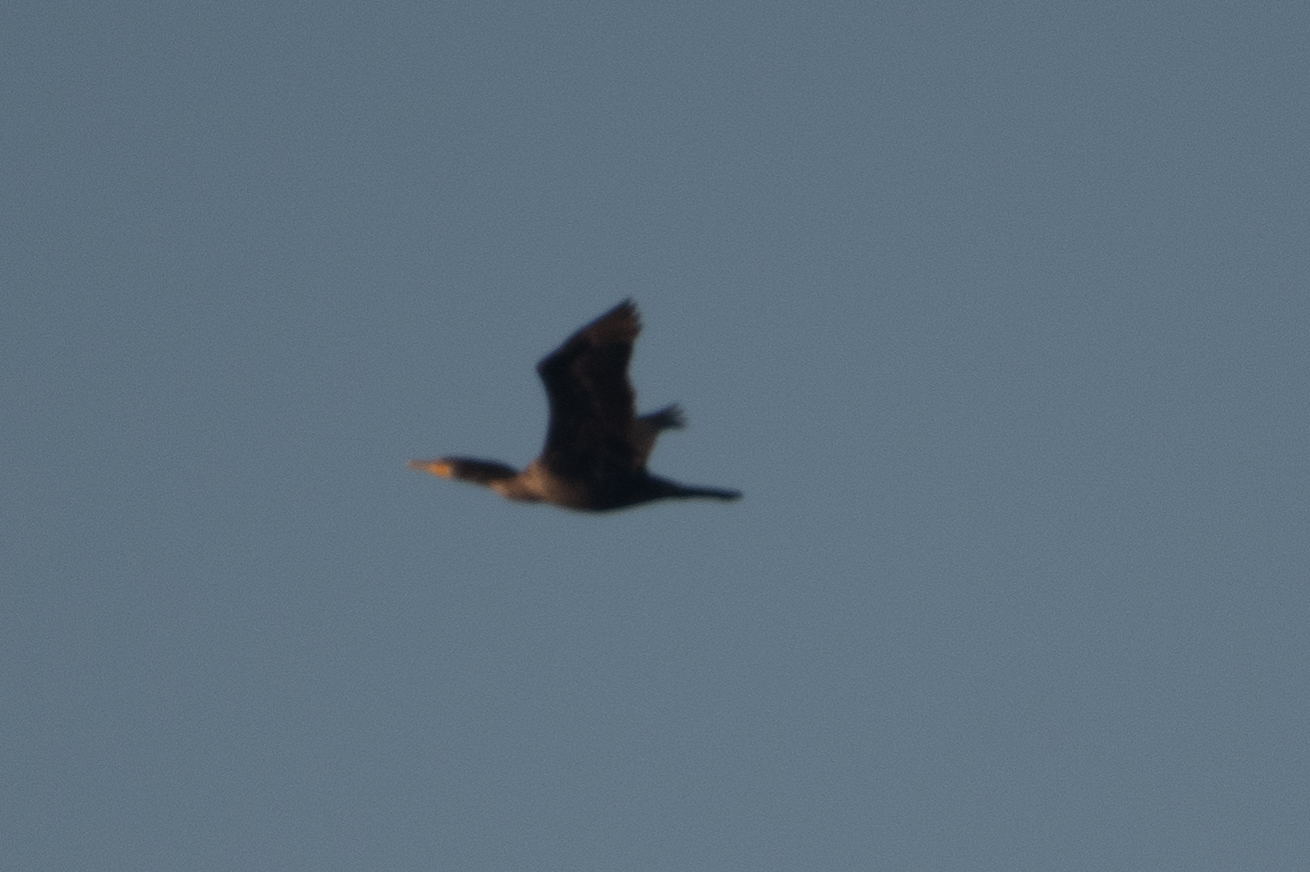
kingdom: Animalia
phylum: Chordata
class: Aves
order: Suliformes
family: Phalacrocoracidae
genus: Phalacrocorax
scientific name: Phalacrocorax auritus
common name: Double-crested cormorant
